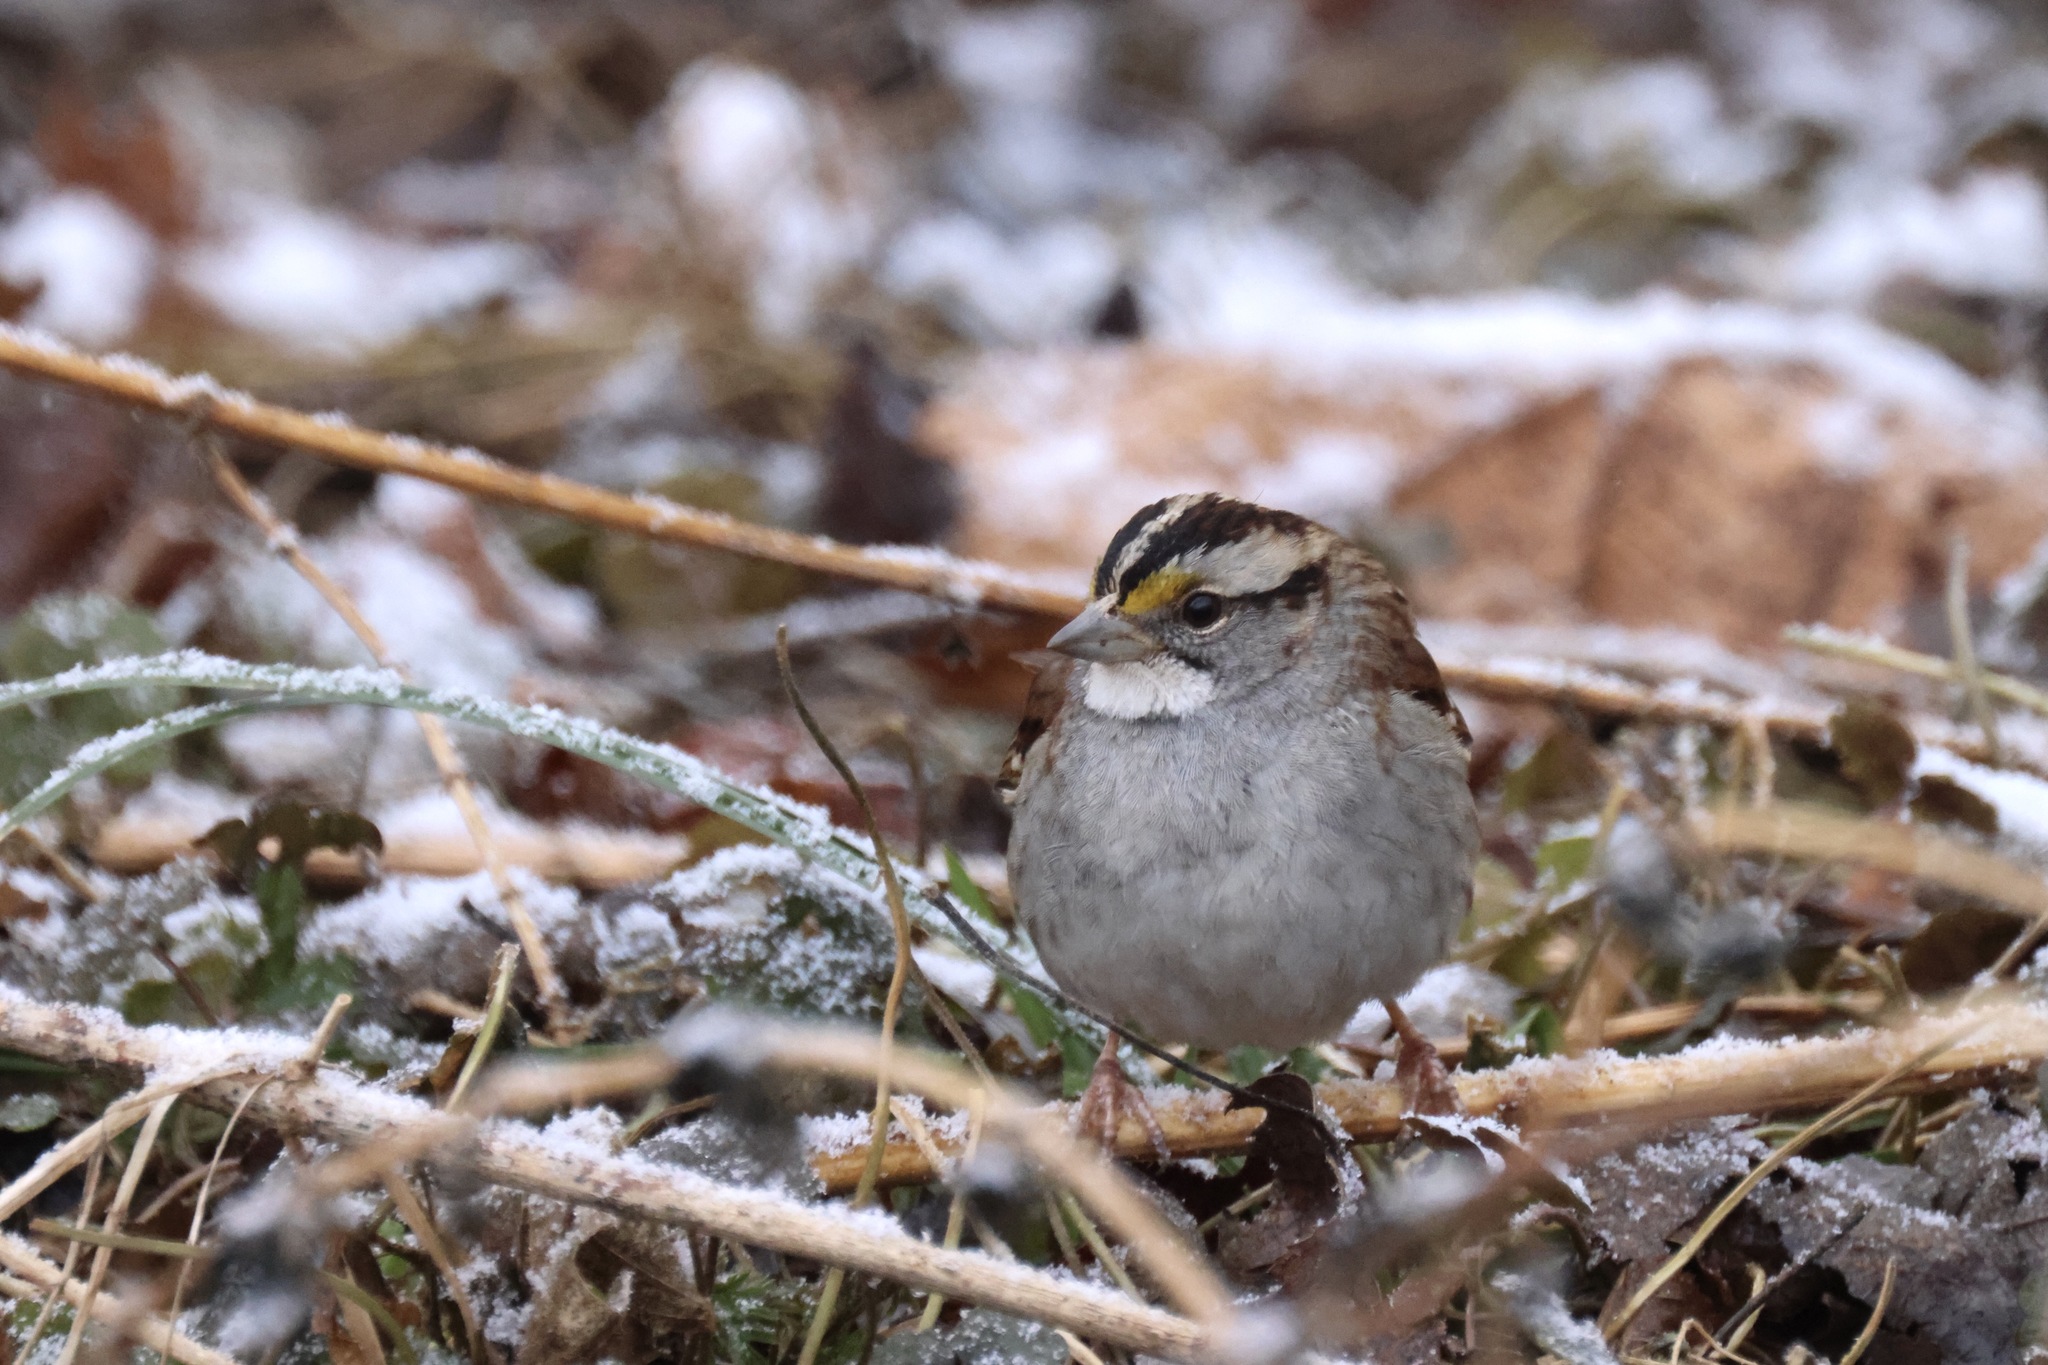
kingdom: Animalia
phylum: Chordata
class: Aves
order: Passeriformes
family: Passerellidae
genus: Zonotrichia
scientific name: Zonotrichia albicollis
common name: White-throated sparrow
